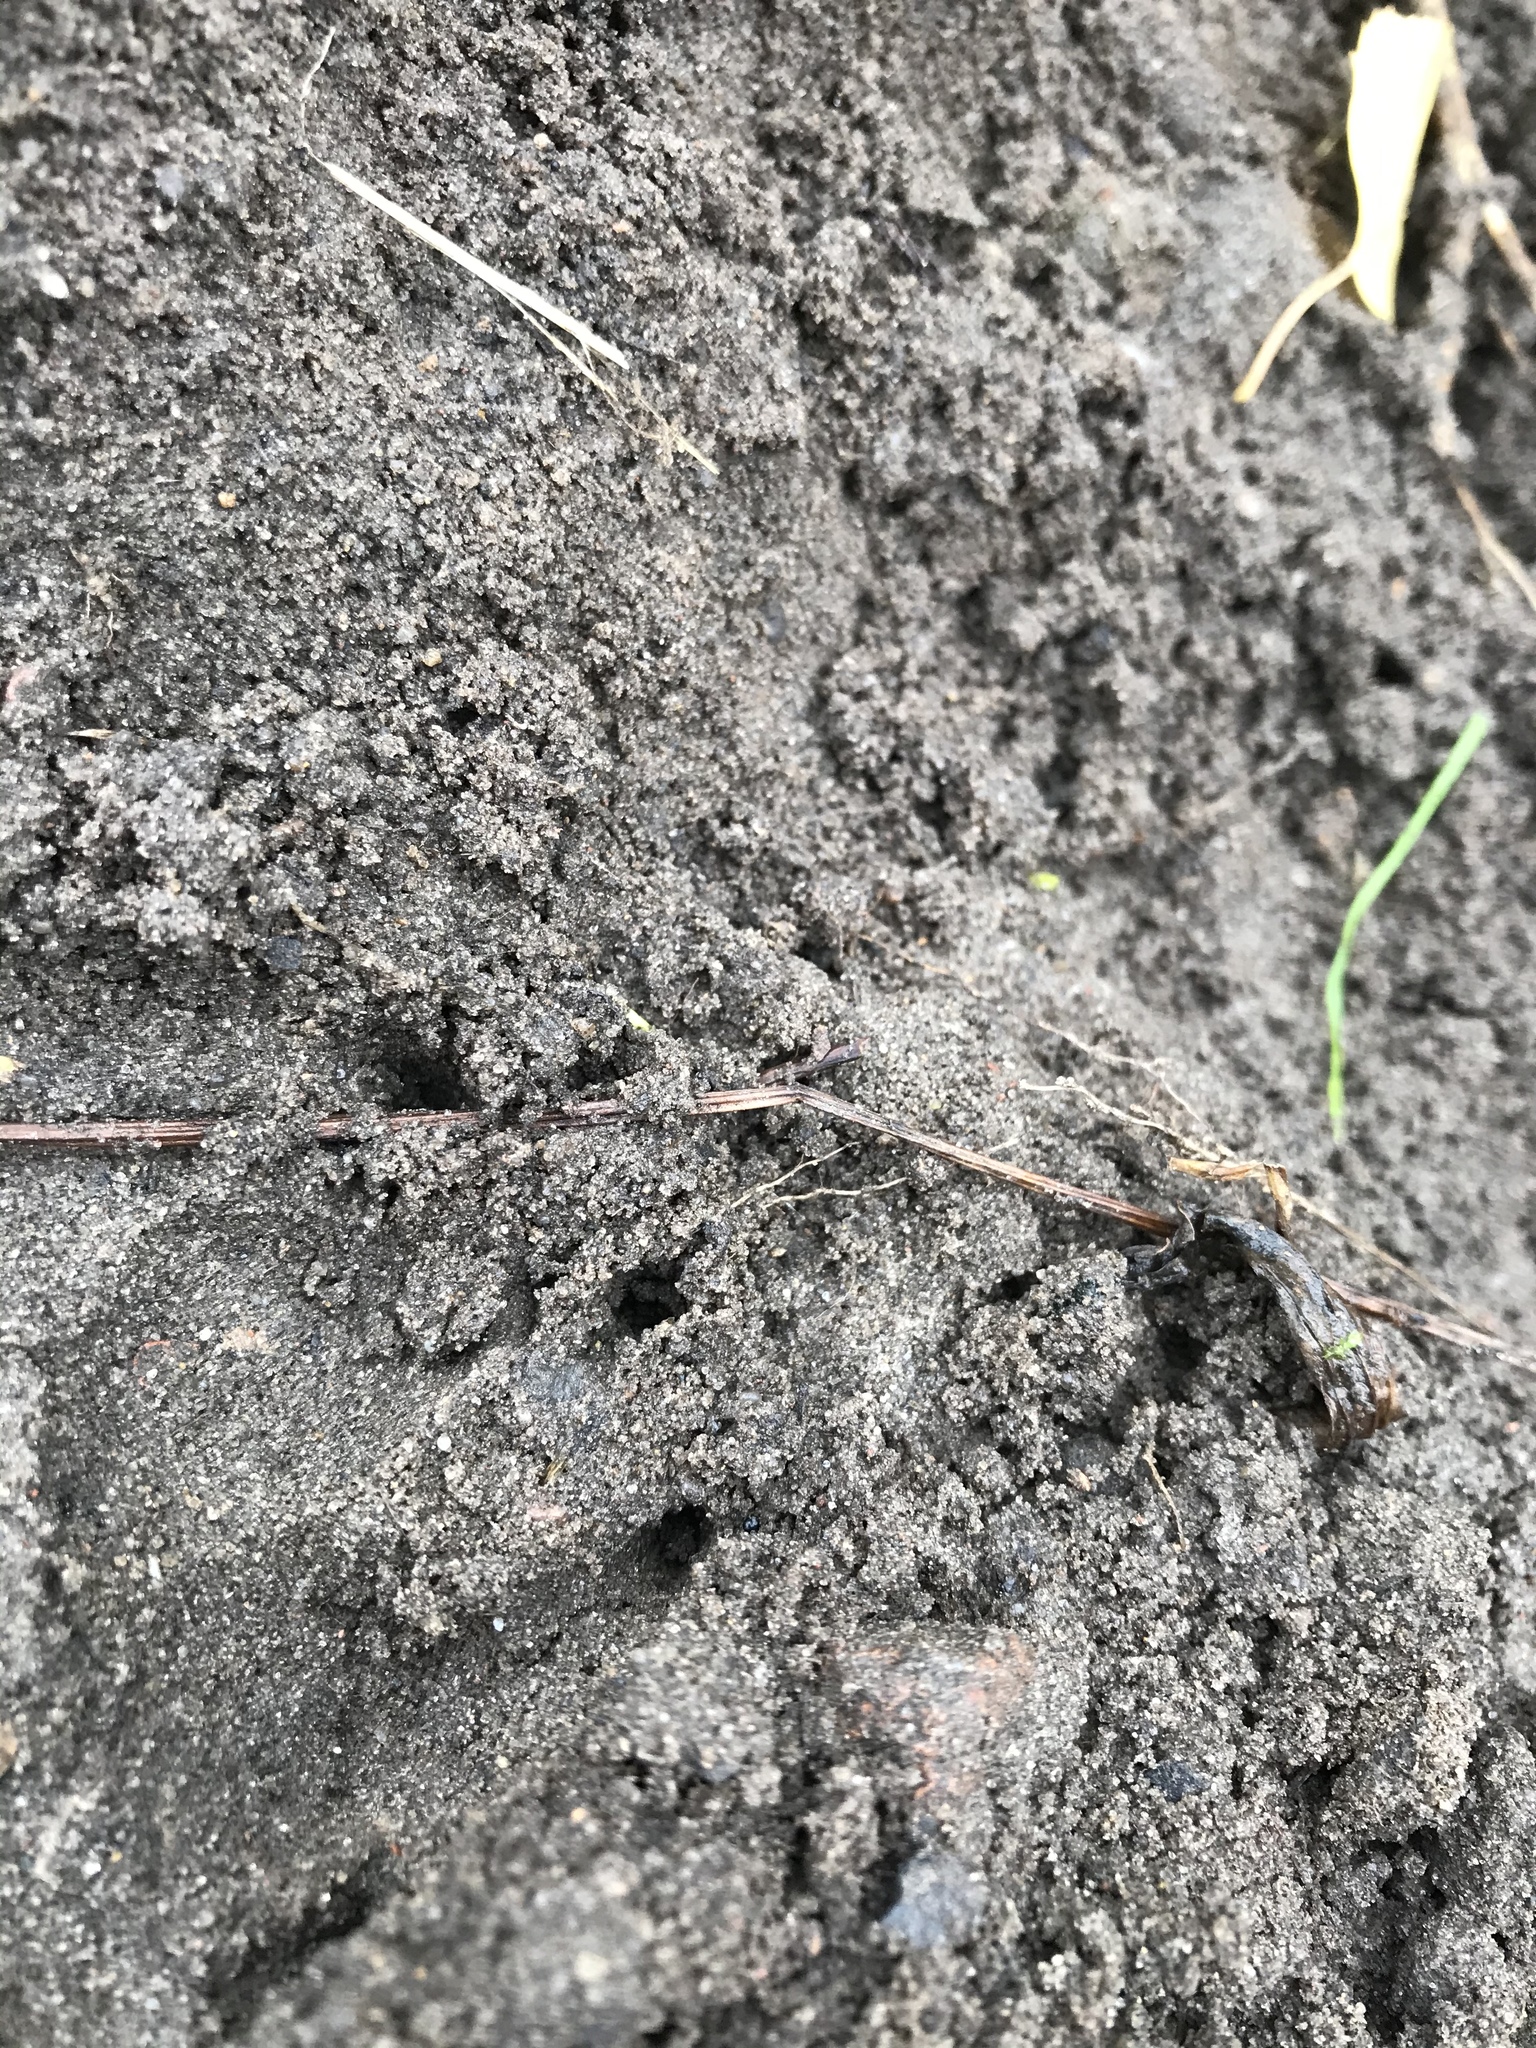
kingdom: Animalia
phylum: Chordata
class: Mammalia
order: Lagomorpha
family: Leporidae
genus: Oryctolagus
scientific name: Oryctolagus cuniculus
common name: European rabbit
